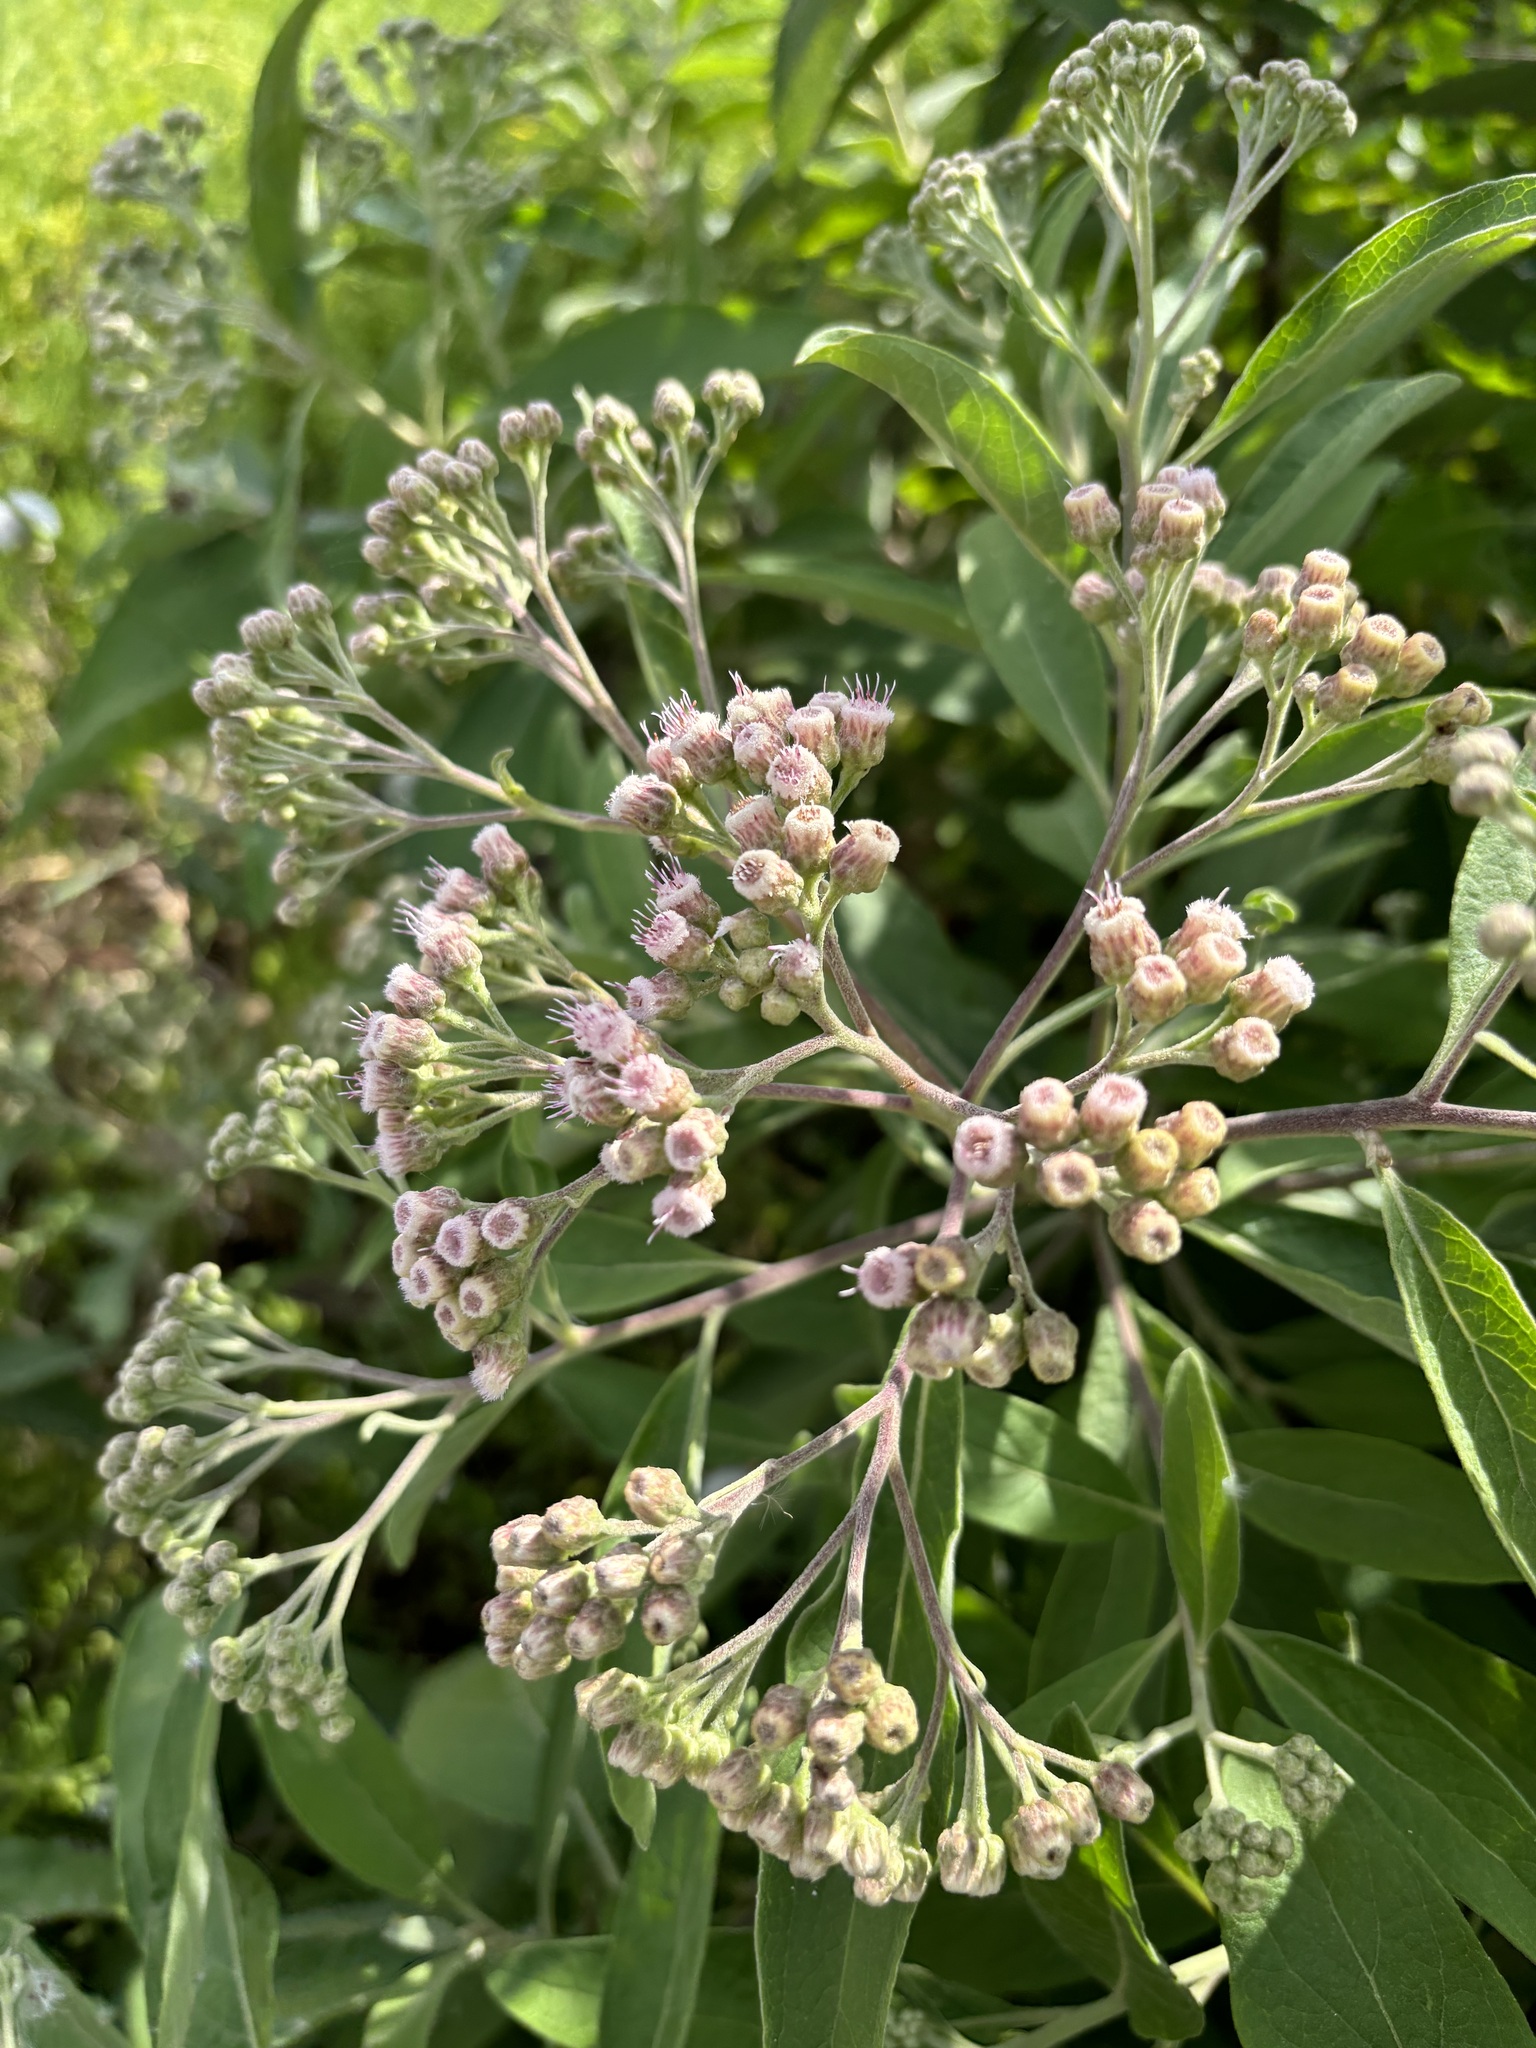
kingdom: Plantae
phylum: Tracheophyta
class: Magnoliopsida
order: Asterales
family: Asteraceae
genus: Pluchea
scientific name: Pluchea carolinensis
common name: Marsh fleabane
